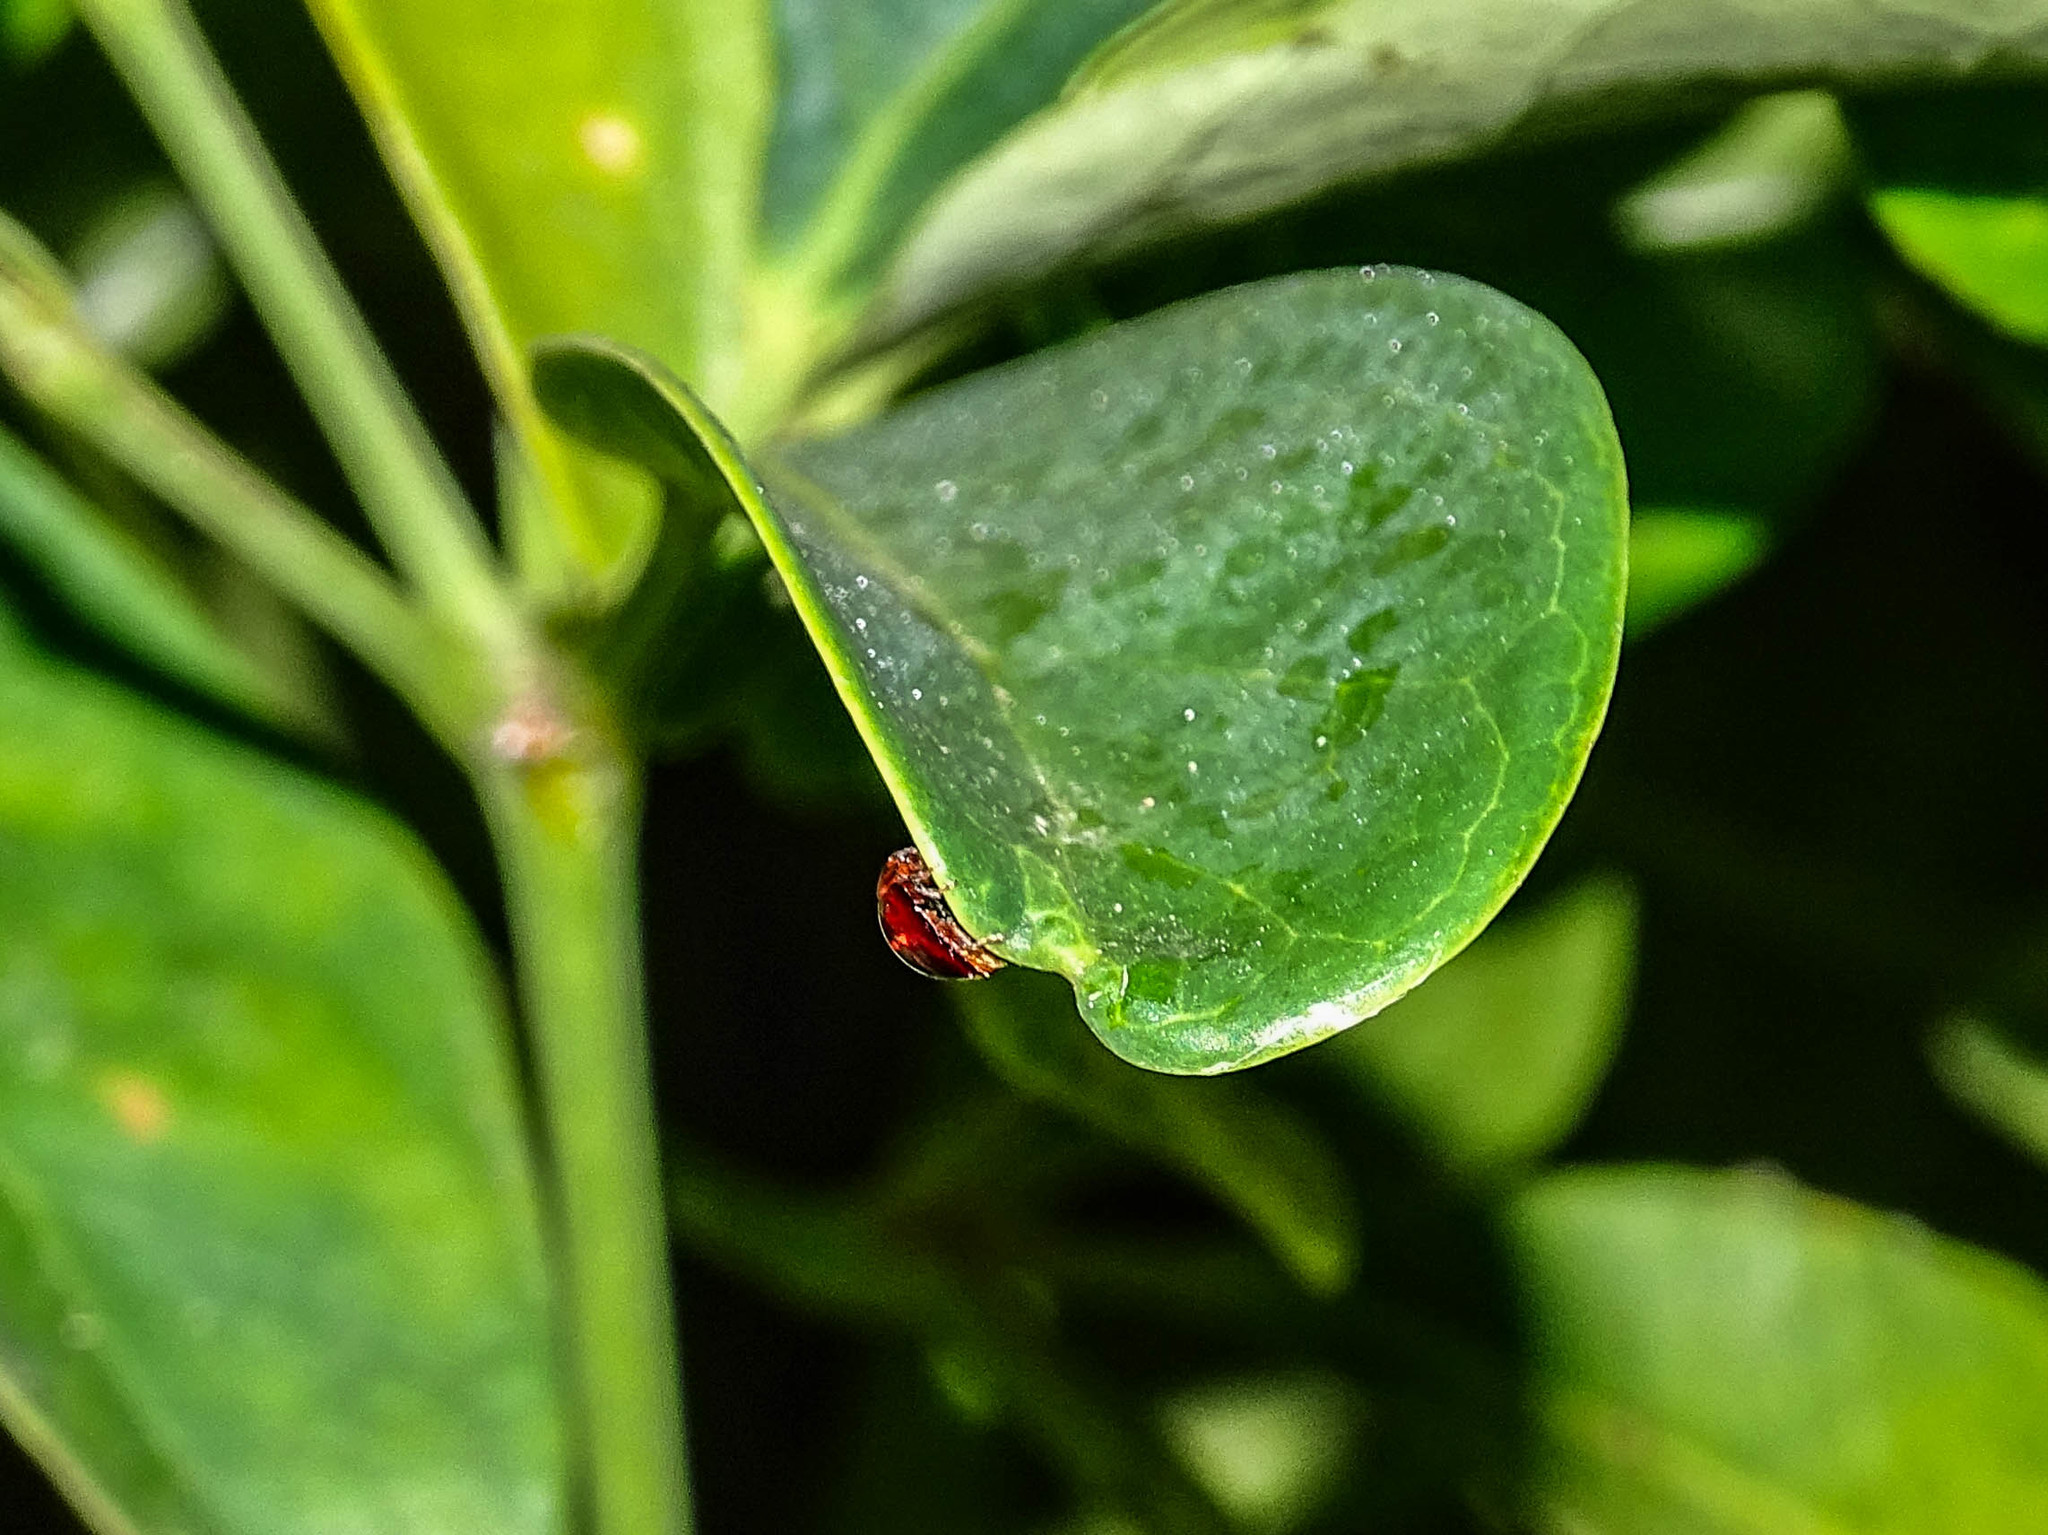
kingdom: Animalia
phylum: Arthropoda
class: Insecta
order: Coleoptera
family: Coccinellidae
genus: Chilocorus
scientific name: Chilocorus bipustulatus
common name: Heather ladybird
